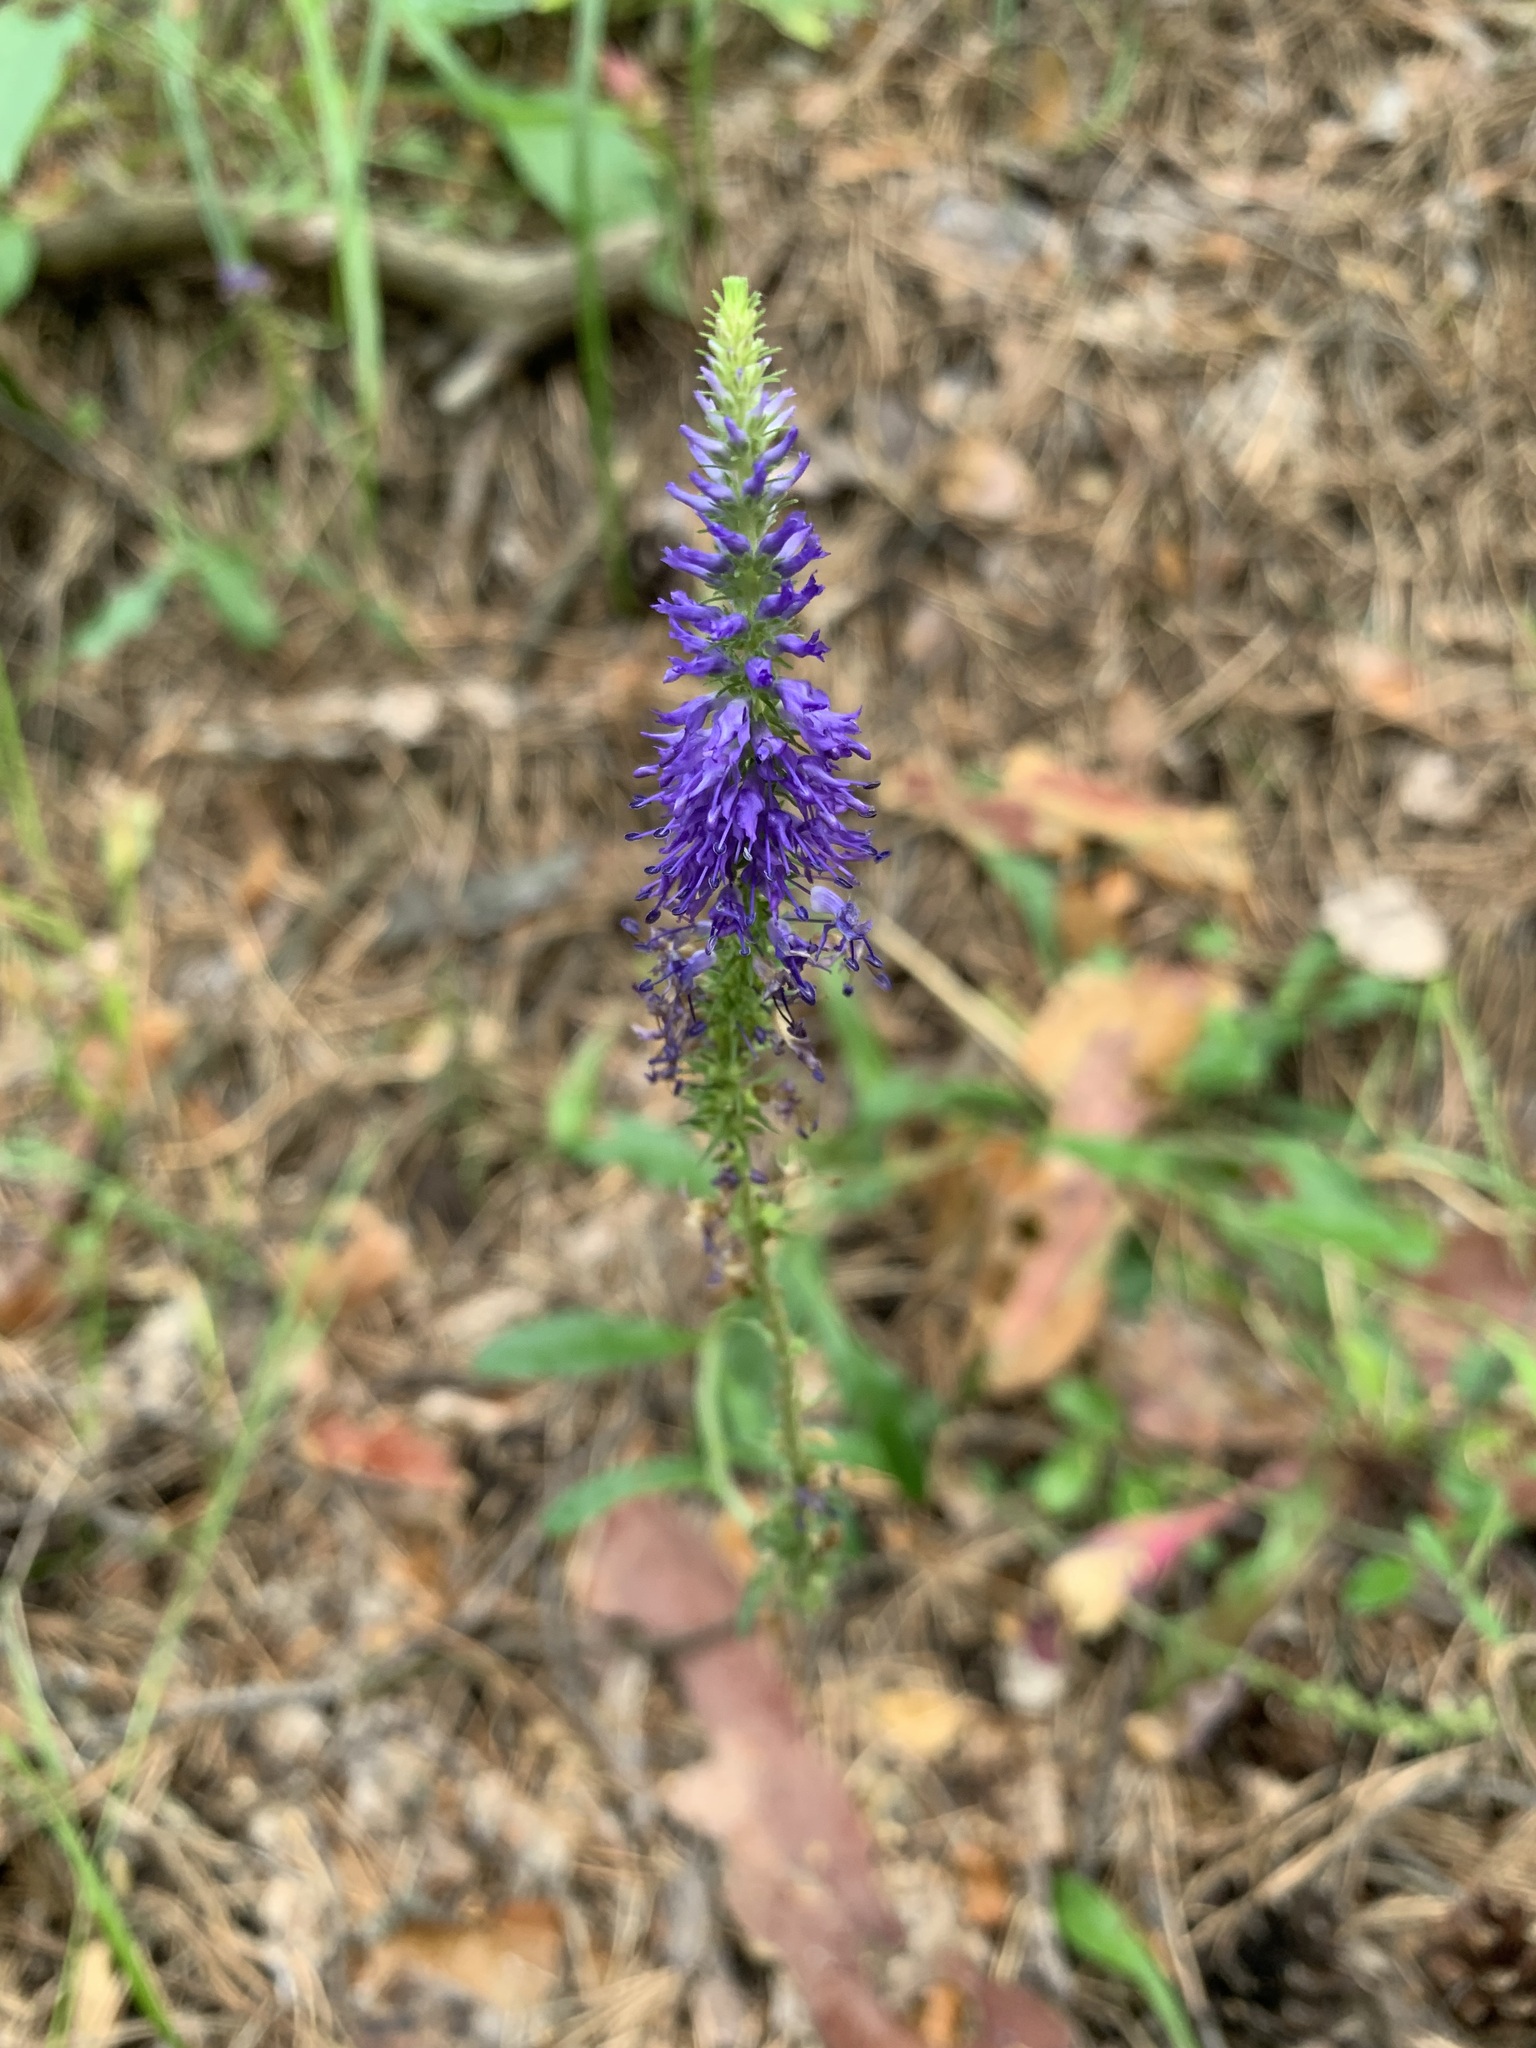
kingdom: Plantae
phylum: Tracheophyta
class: Magnoliopsida
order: Lamiales
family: Plantaginaceae
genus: Veronica
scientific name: Veronica spicata
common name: Spiked speedwell
